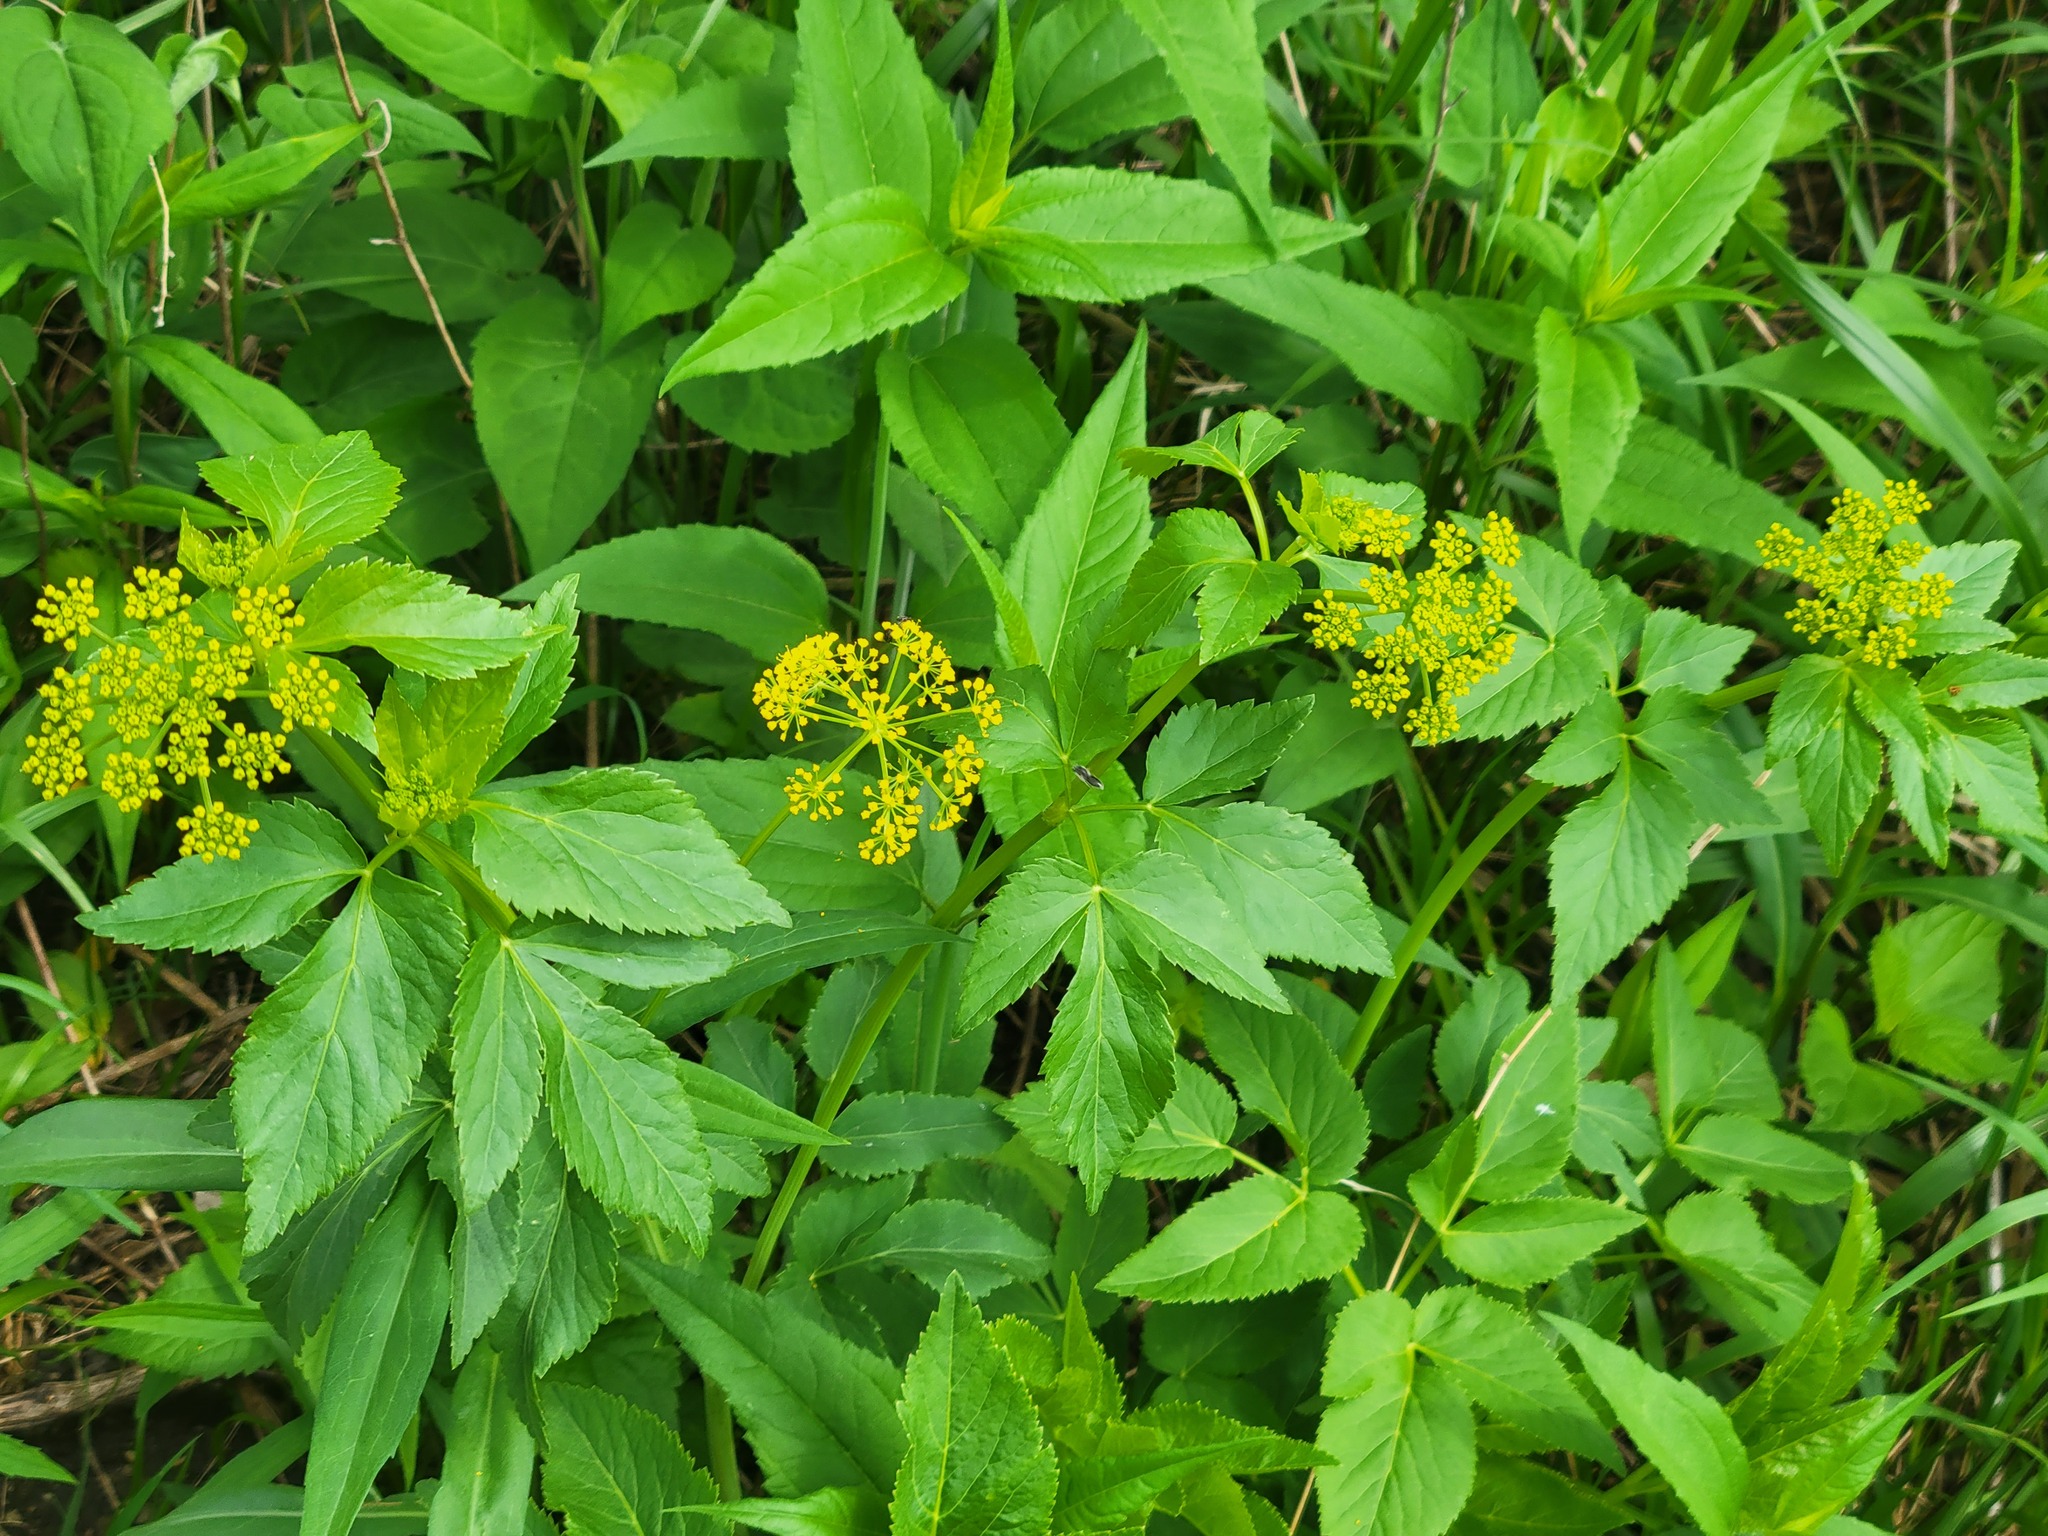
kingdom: Plantae
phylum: Tracheophyta
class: Magnoliopsida
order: Apiales
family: Apiaceae
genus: Zizia
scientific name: Zizia aurea
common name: Golden alexanders
